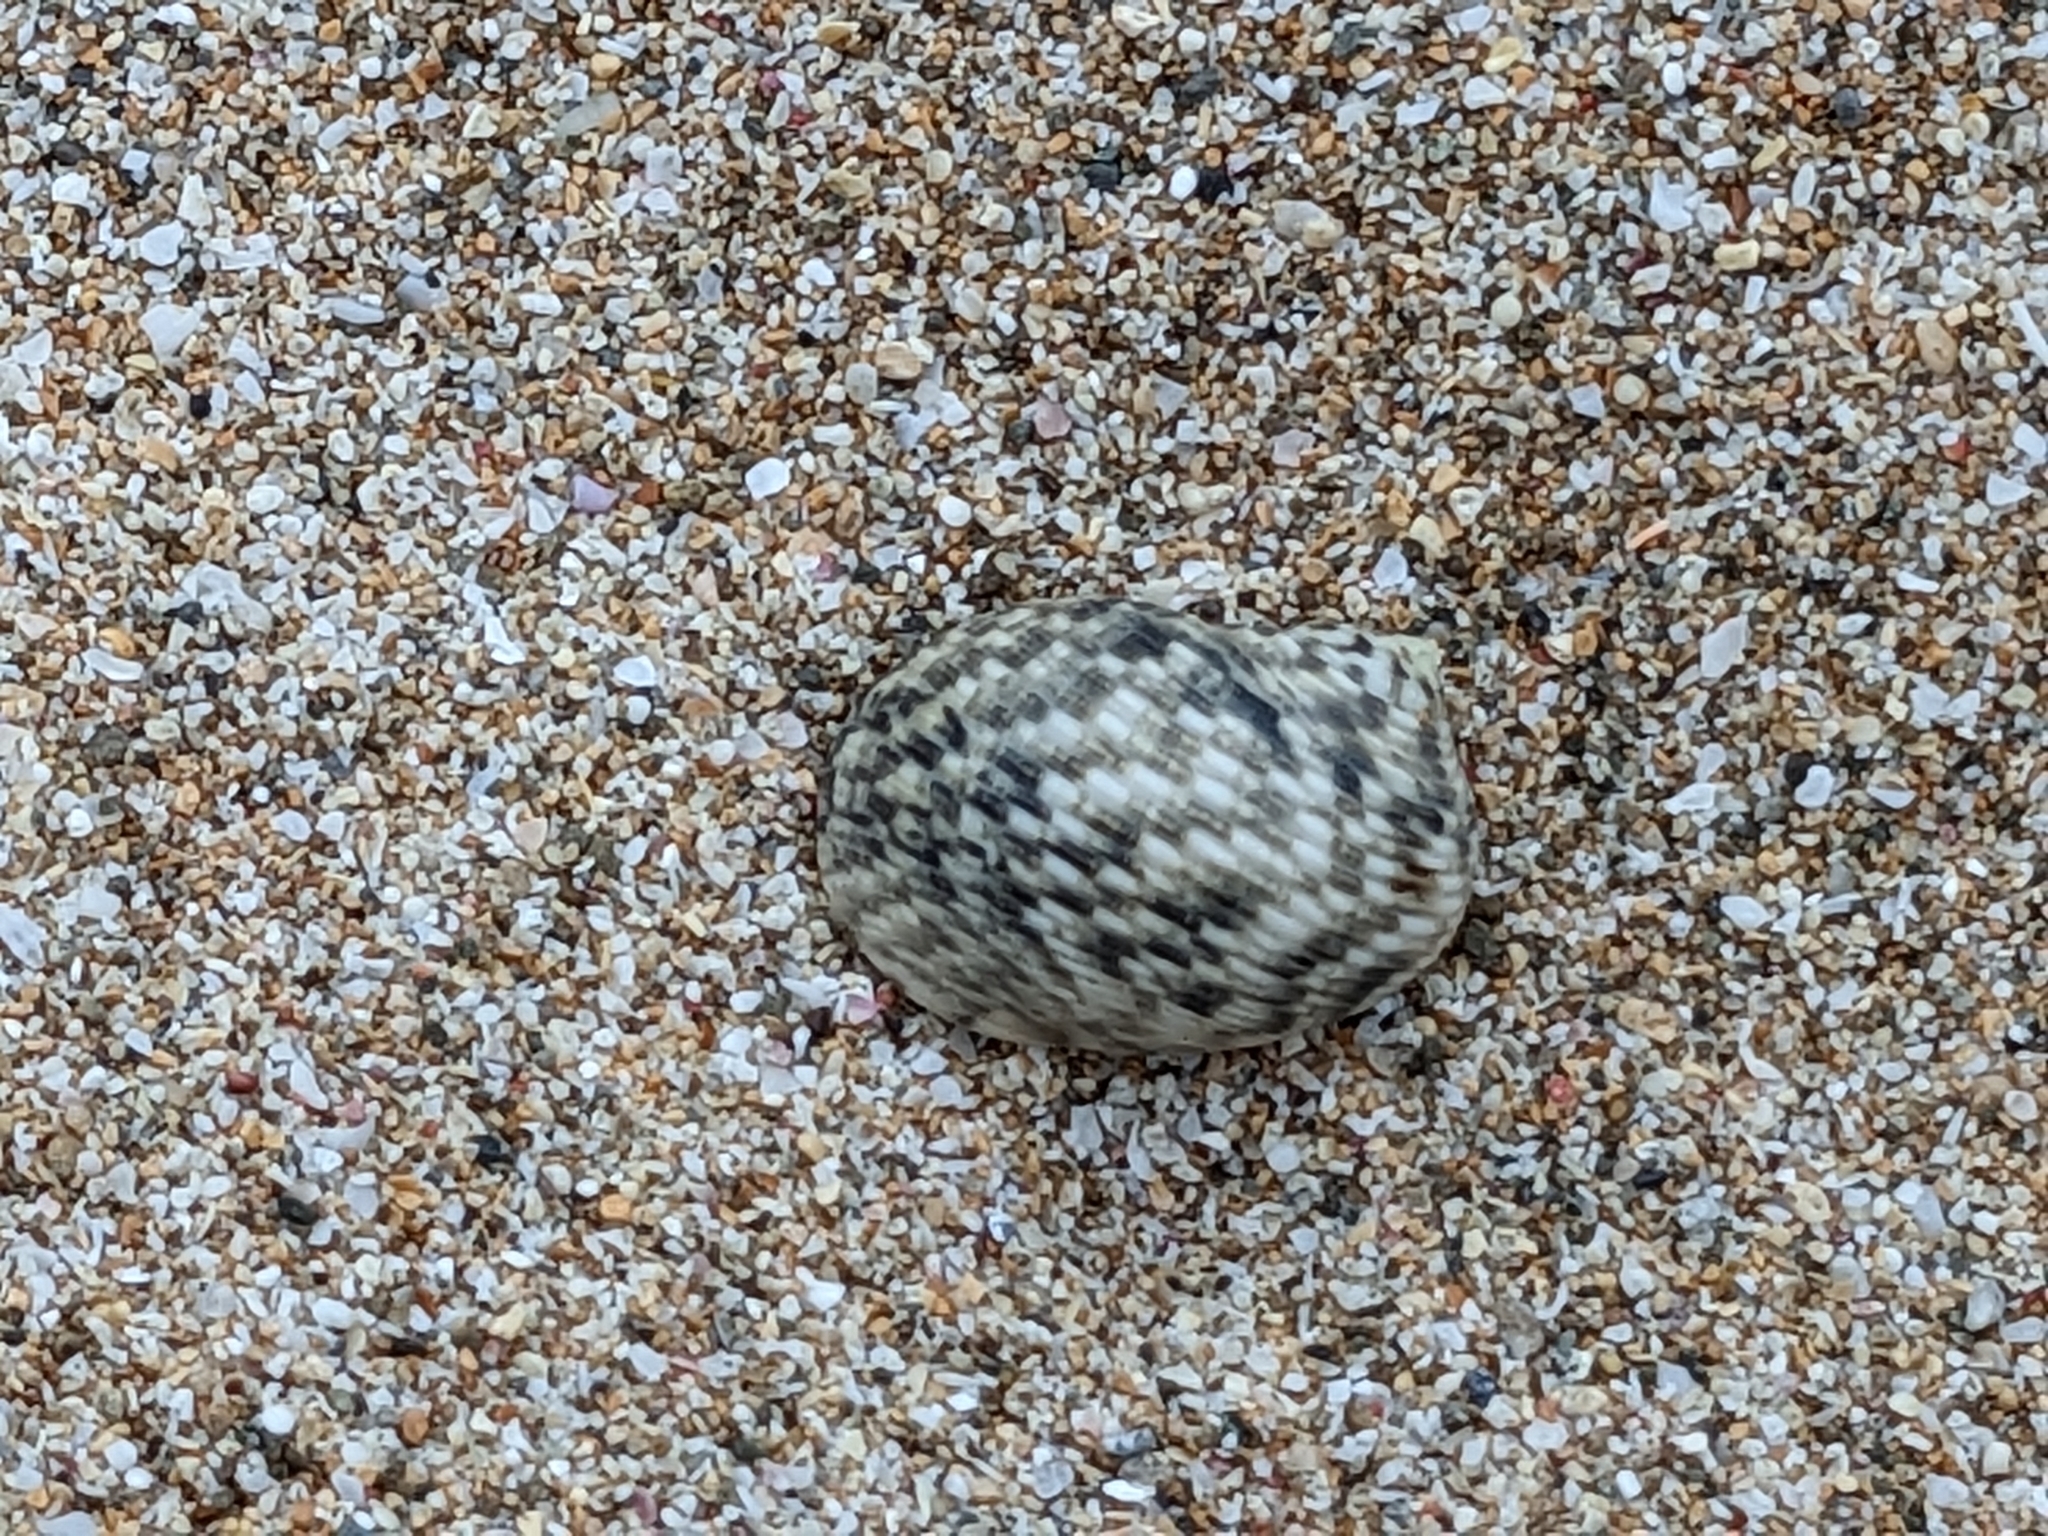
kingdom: Animalia
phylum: Arthropoda
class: Malacostraca
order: Decapoda
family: Coenobitidae
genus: Coenobita
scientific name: Coenobita rugosus
